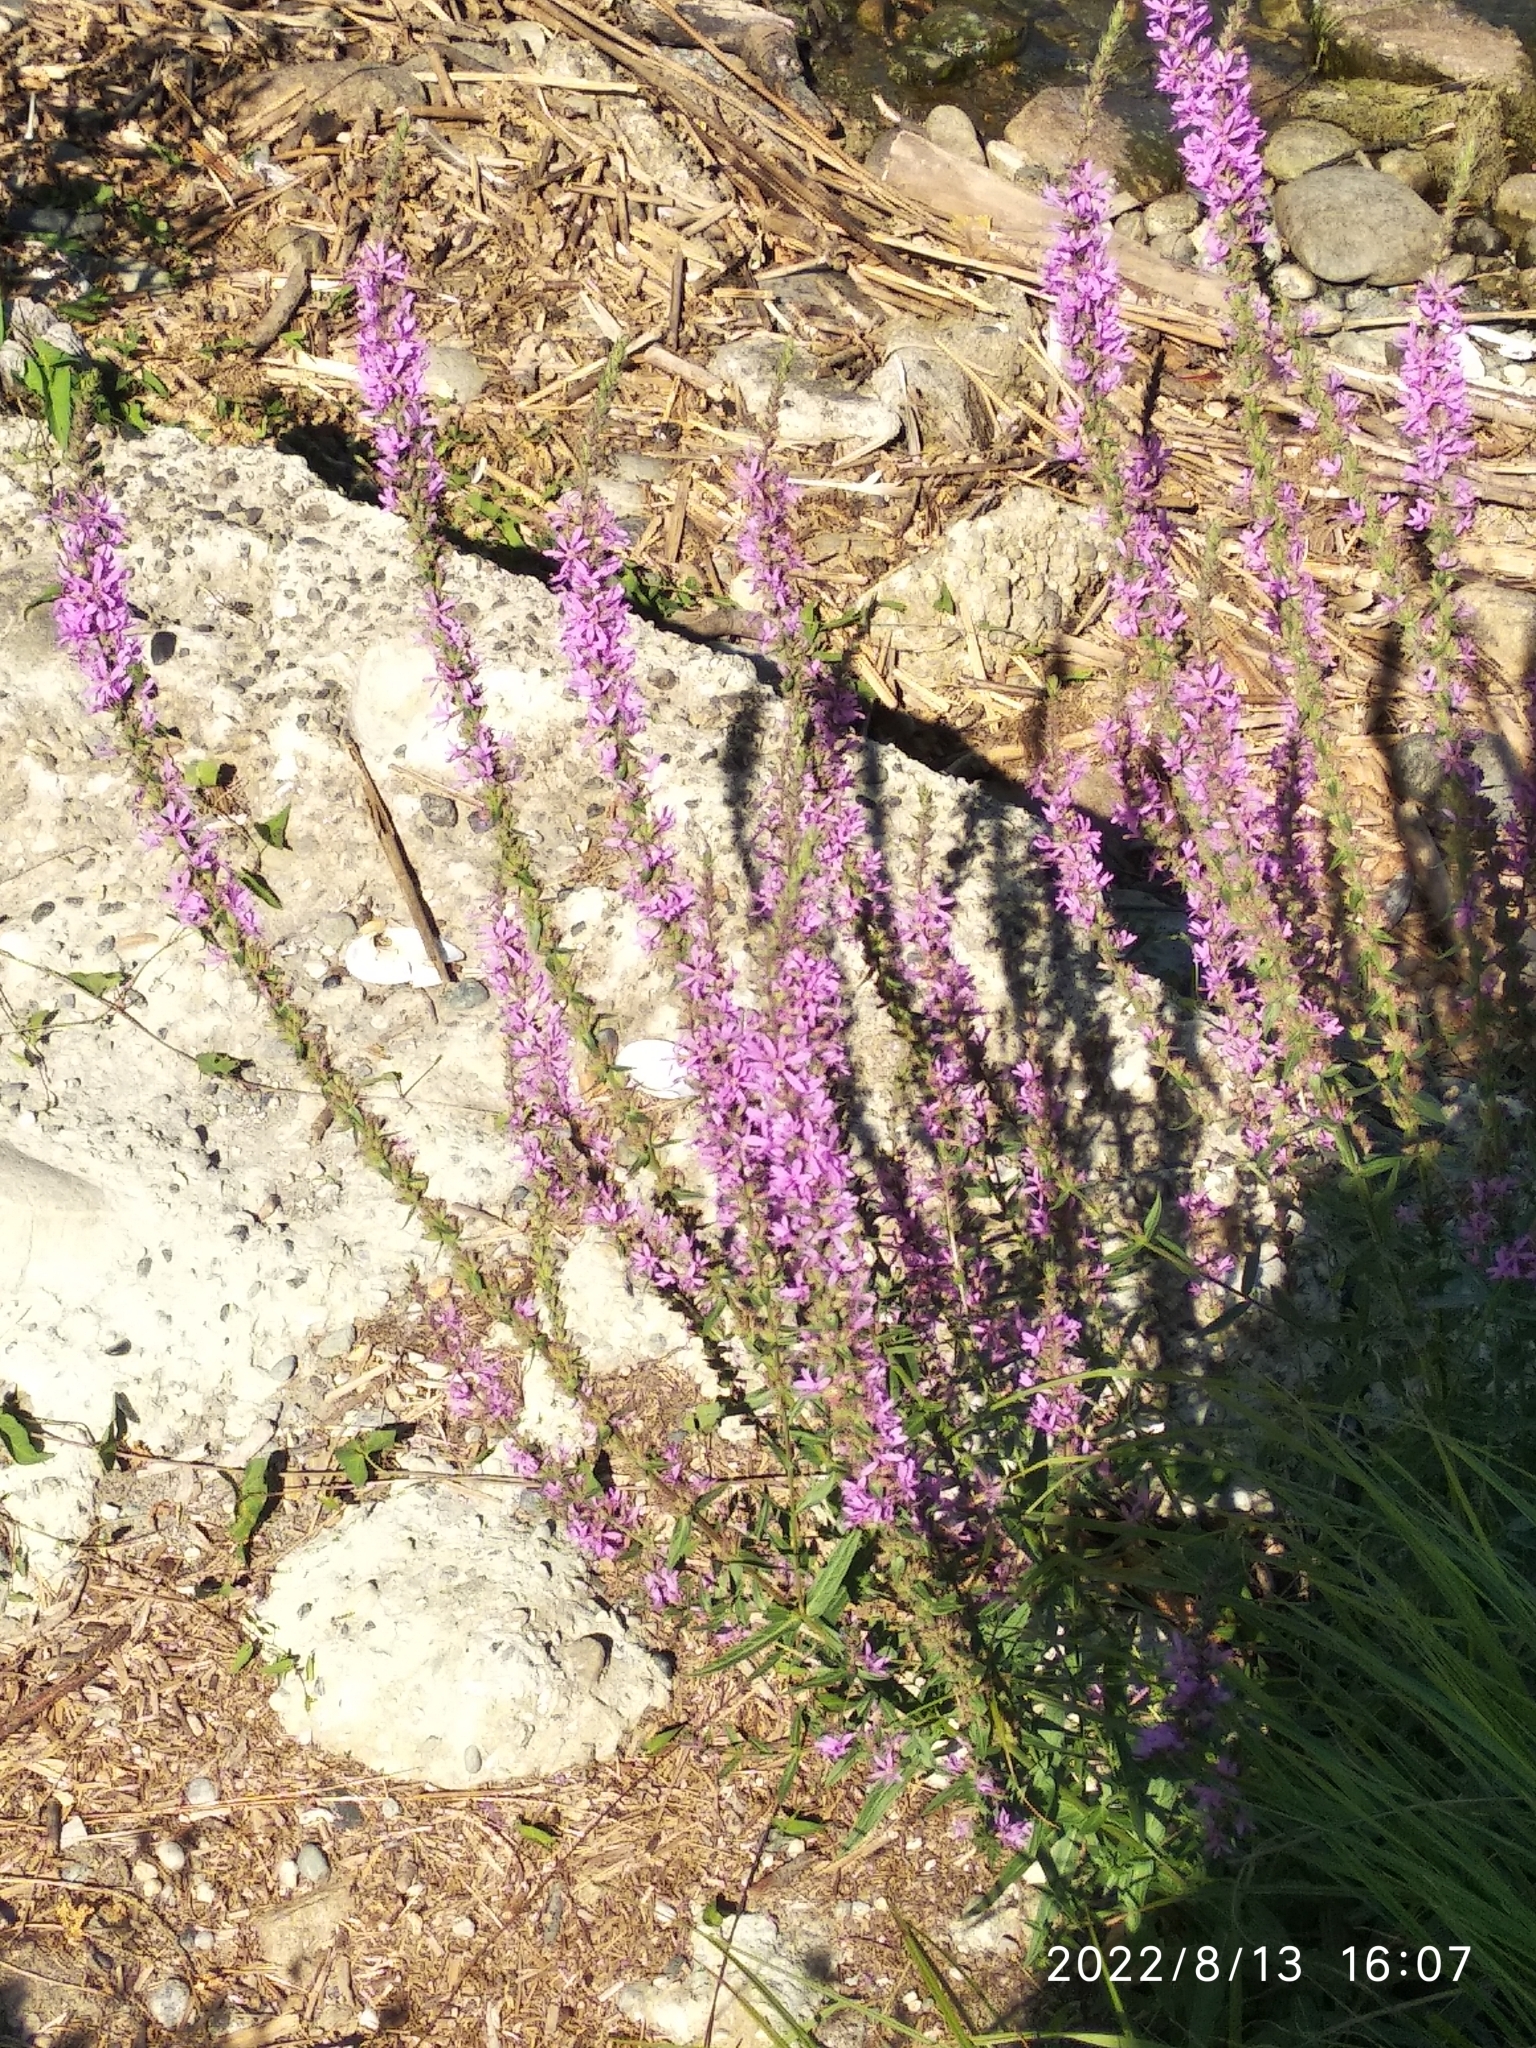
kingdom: Plantae
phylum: Tracheophyta
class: Magnoliopsida
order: Myrtales
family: Lythraceae
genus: Lythrum
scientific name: Lythrum salicaria
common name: Purple loosestrife
